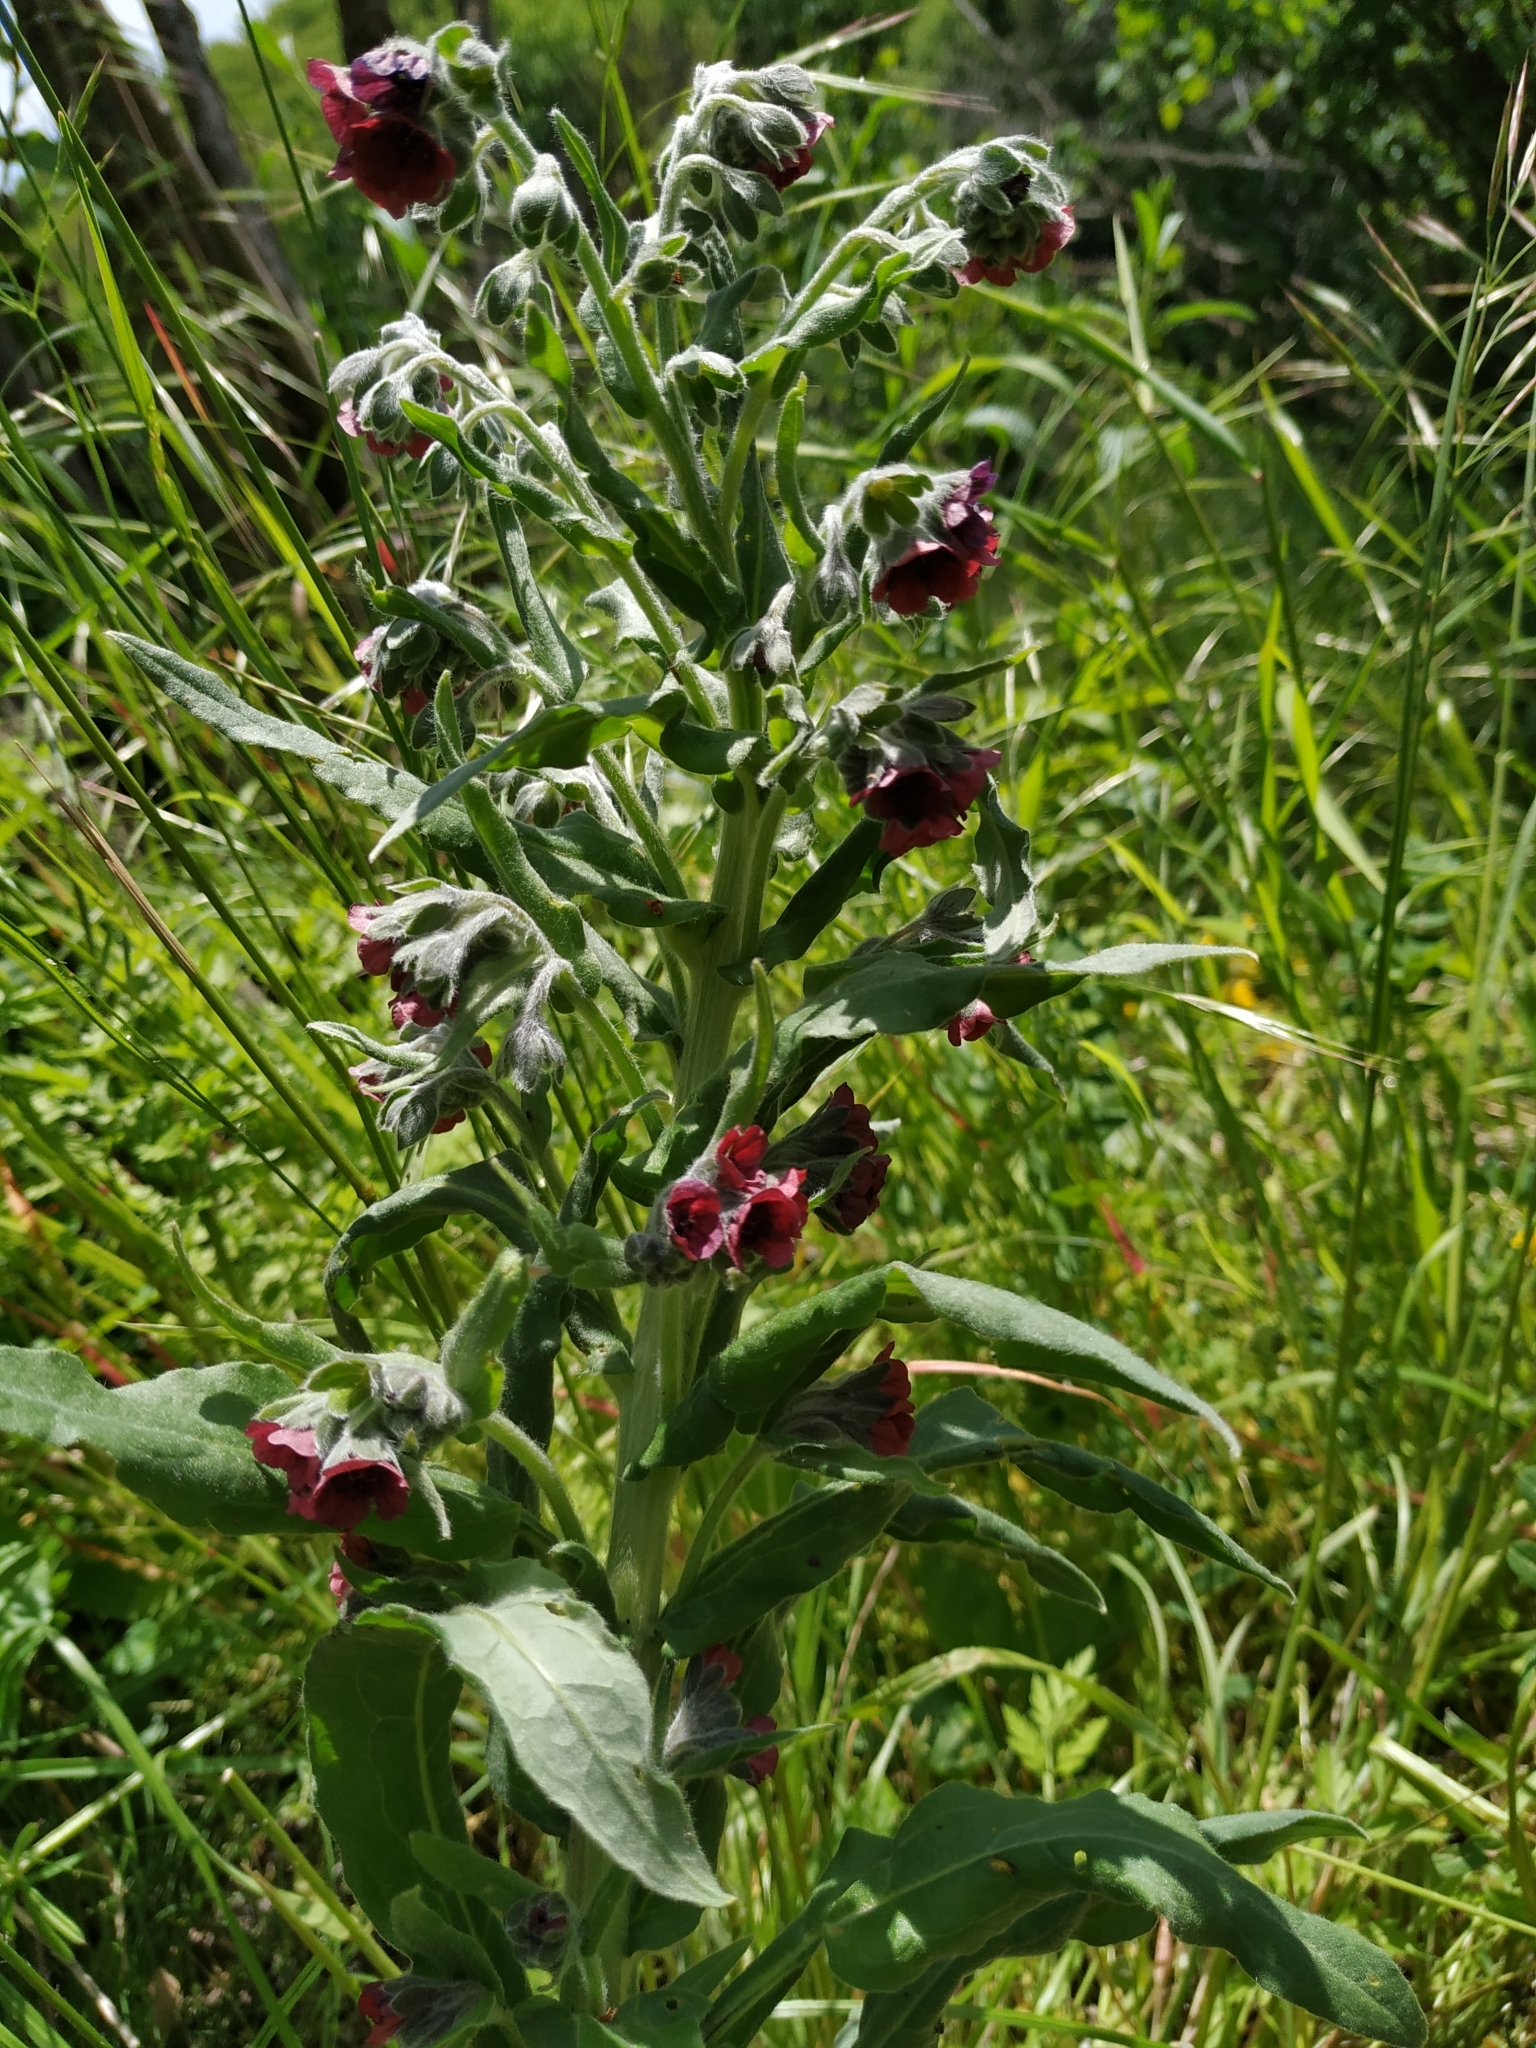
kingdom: Plantae
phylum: Tracheophyta
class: Magnoliopsida
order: Boraginales
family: Boraginaceae
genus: Cynoglossum
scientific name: Cynoglossum officinale
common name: Hound's-tongue
